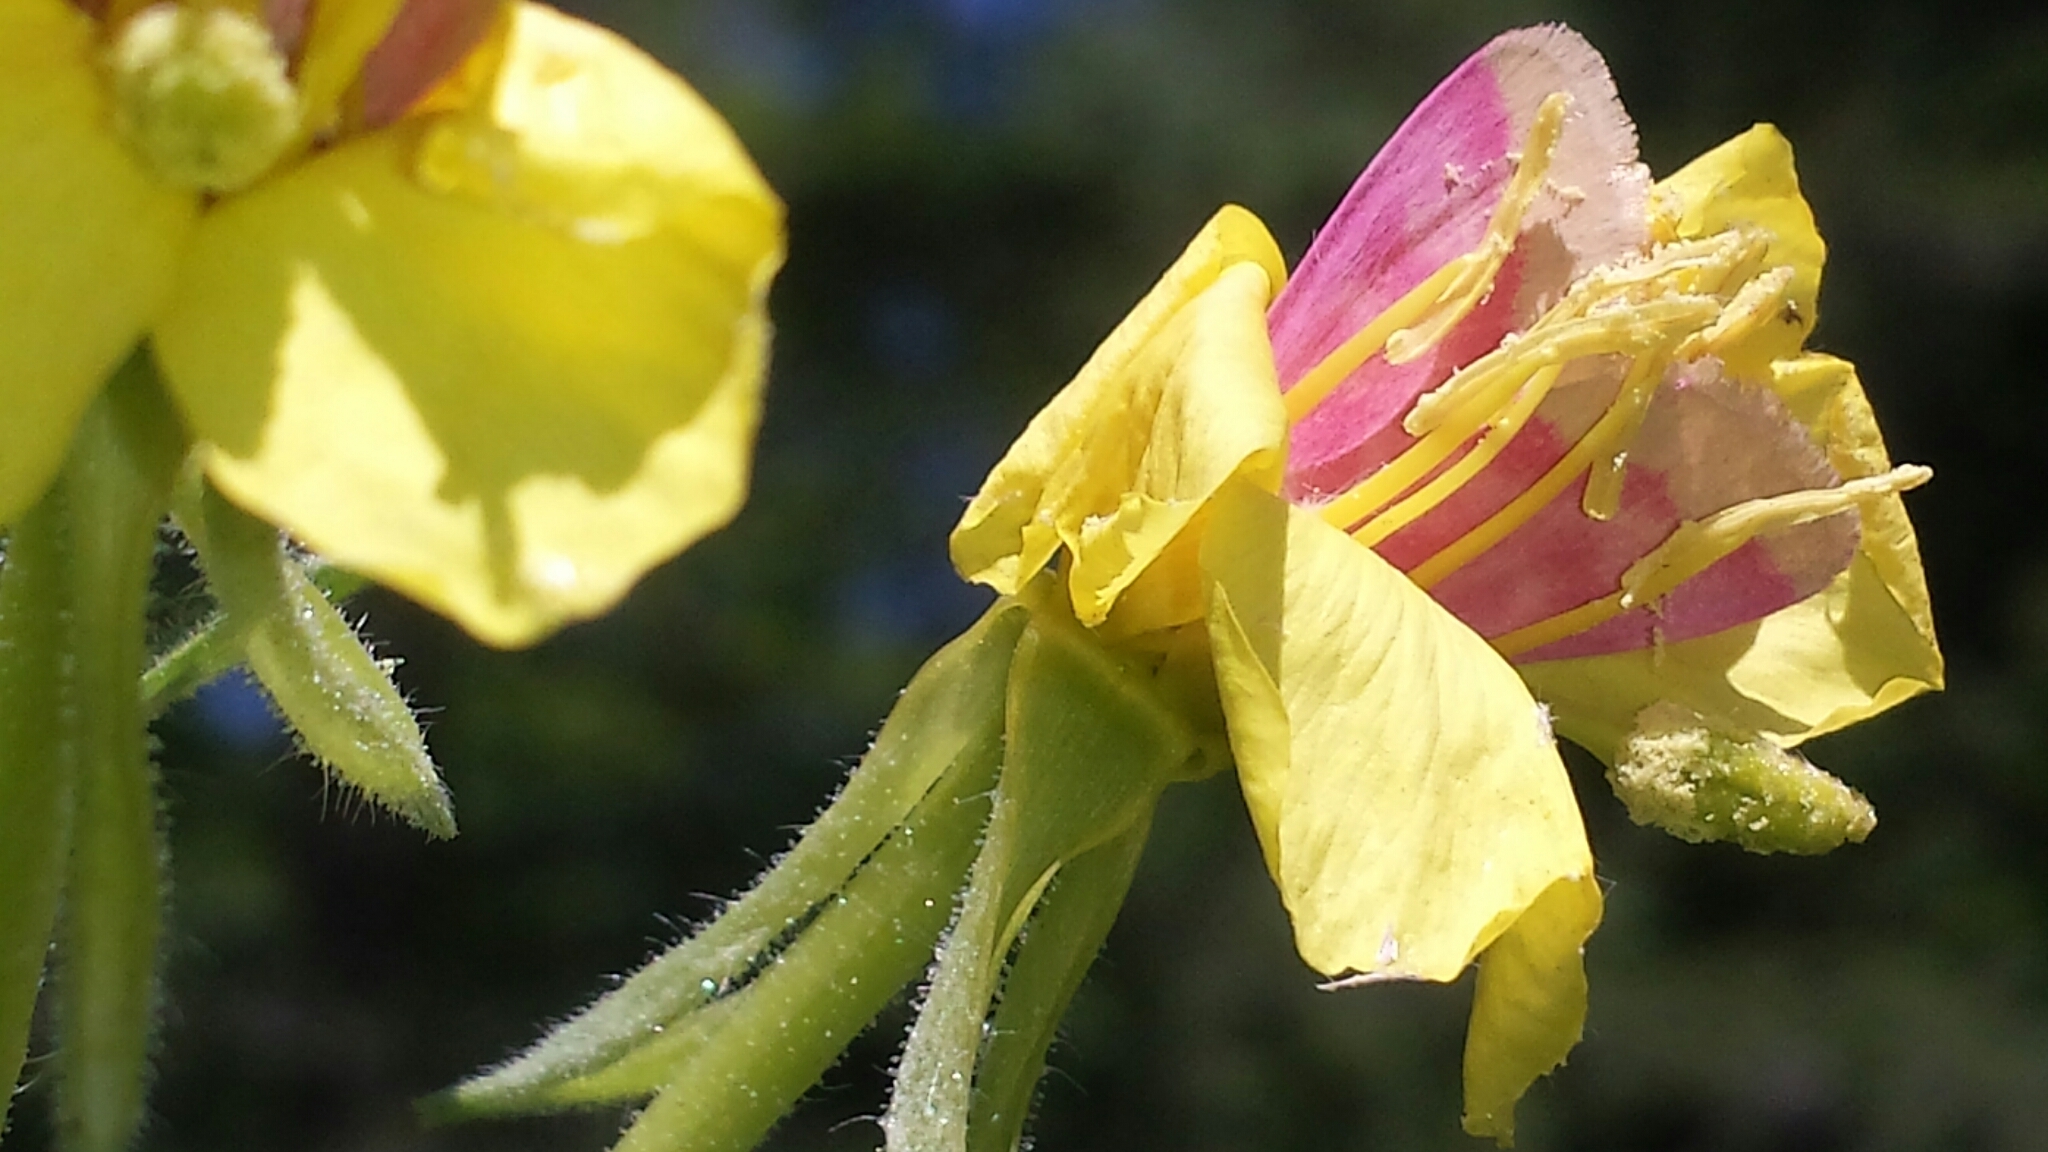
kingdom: Animalia
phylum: Arthropoda
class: Insecta
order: Lepidoptera
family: Noctuidae
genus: Schinia
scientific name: Schinia florida
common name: Primrose moth
